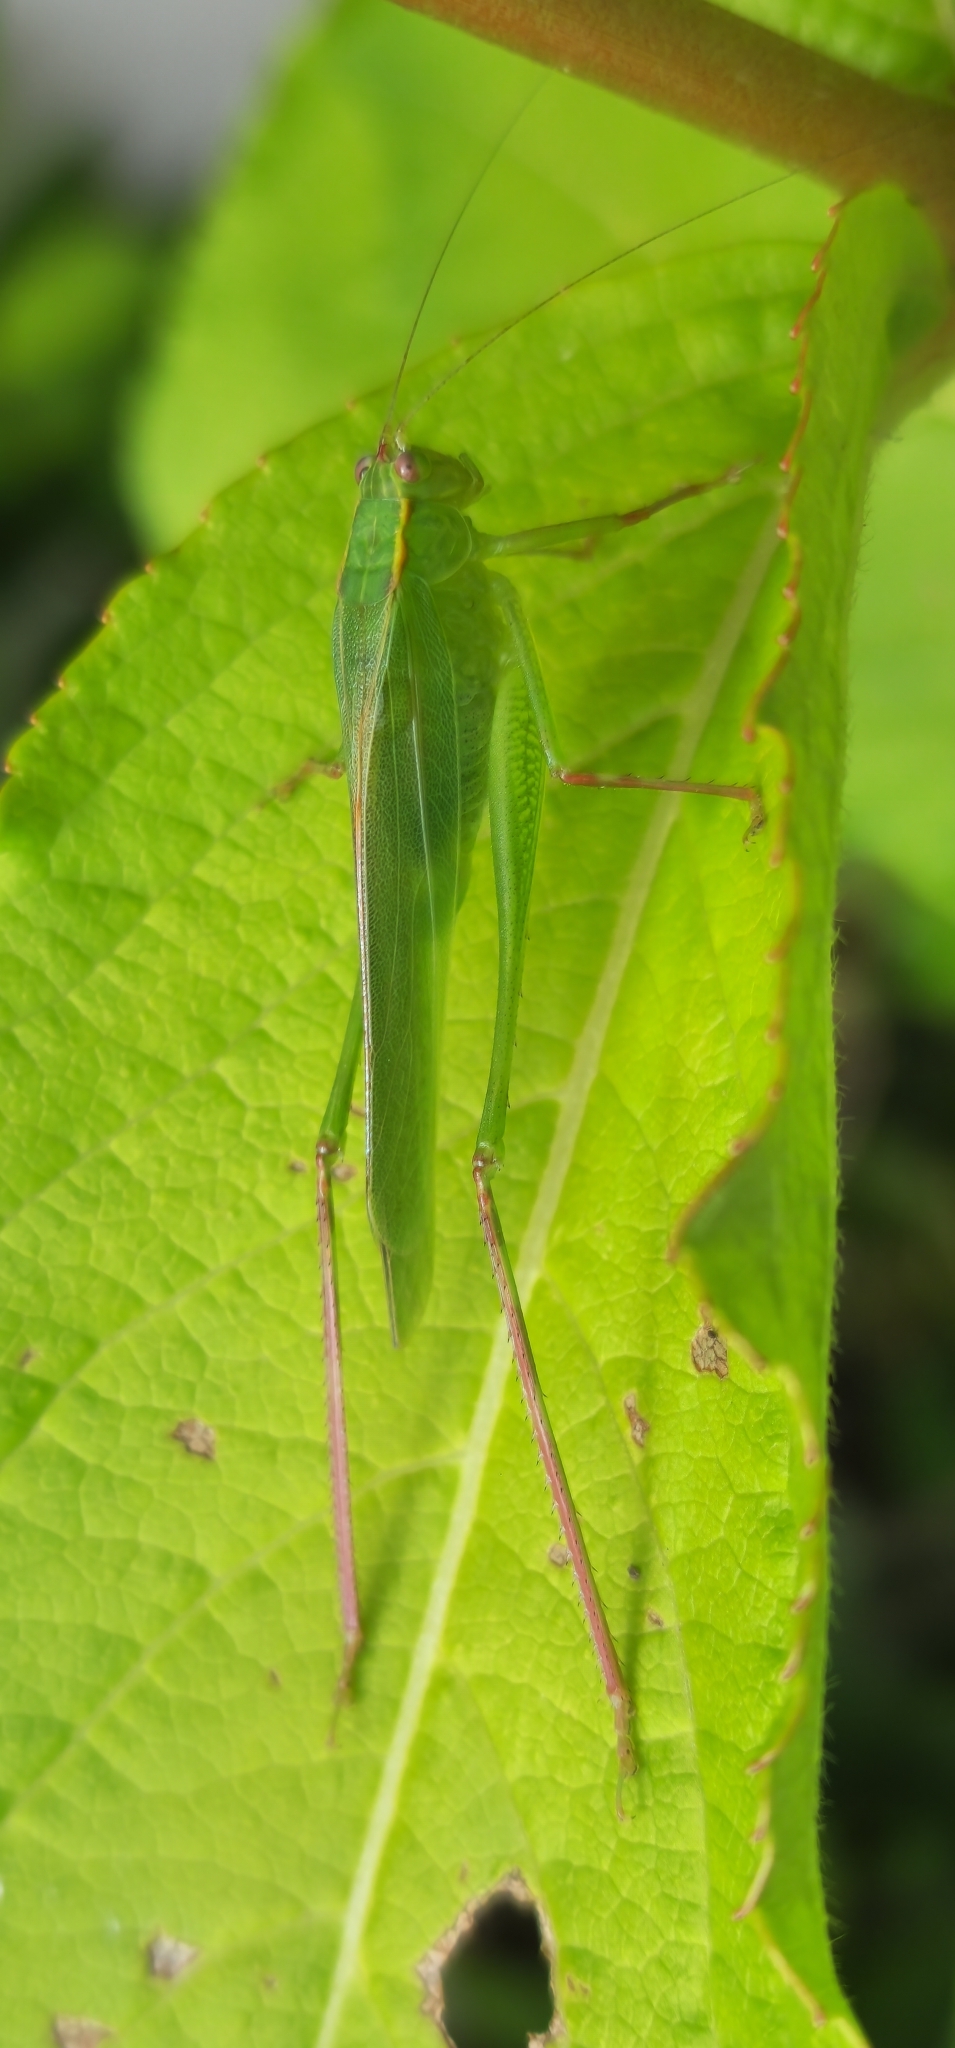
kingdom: Animalia
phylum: Arthropoda
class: Insecta
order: Orthoptera
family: Tettigoniidae
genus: Ligocatinus
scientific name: Ligocatinus spinatus
